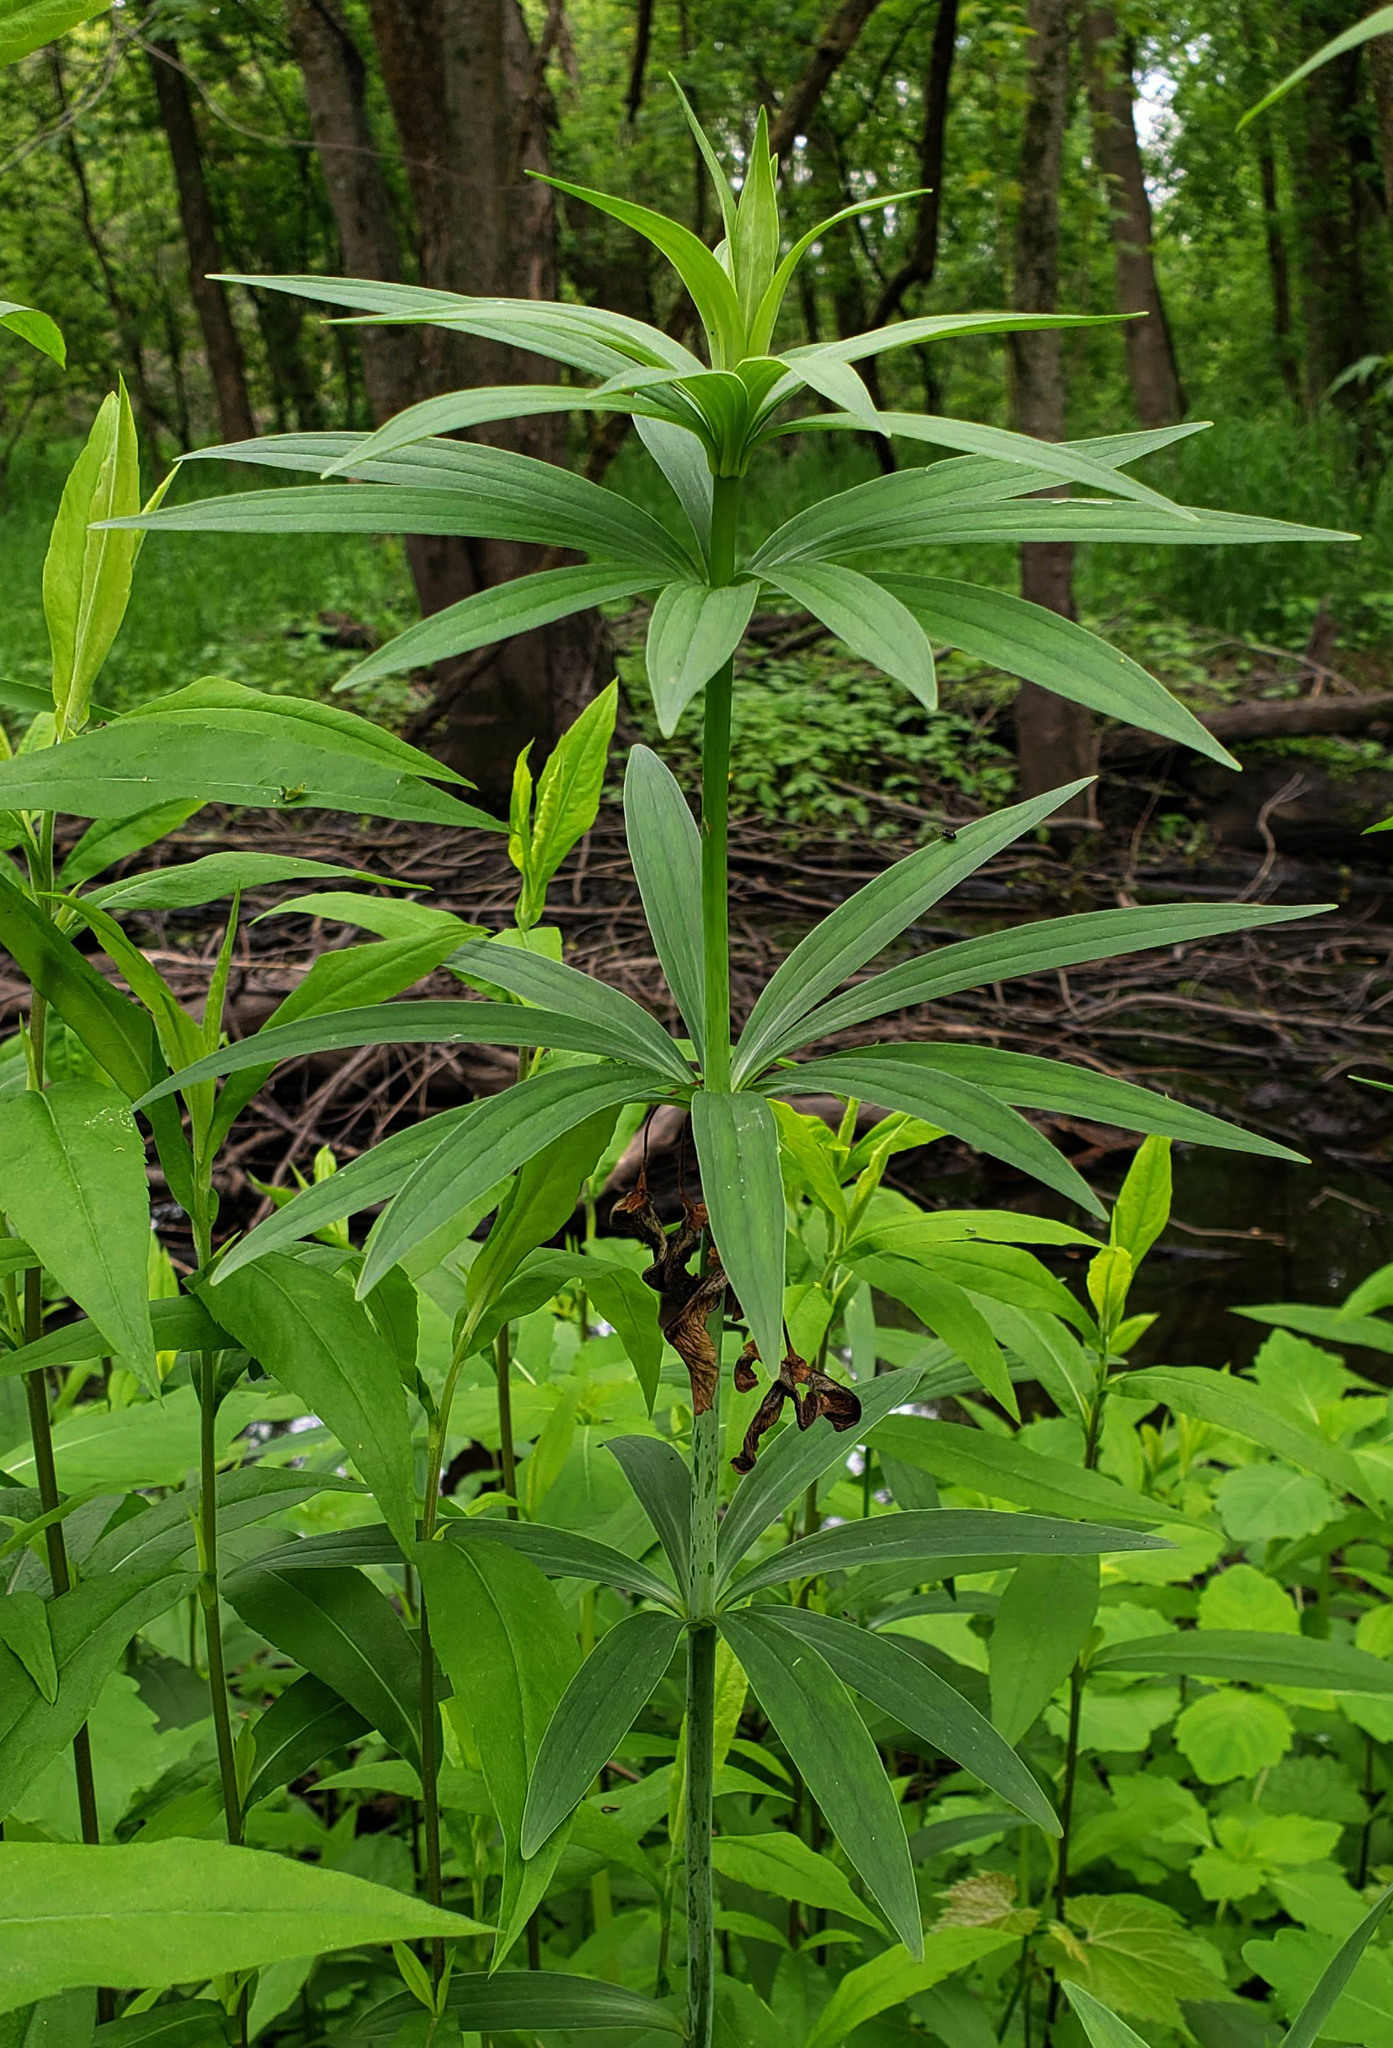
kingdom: Plantae
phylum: Tracheophyta
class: Liliopsida
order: Liliales
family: Liliaceae
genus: Lilium
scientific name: Lilium michiganense
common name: Michigan lily
